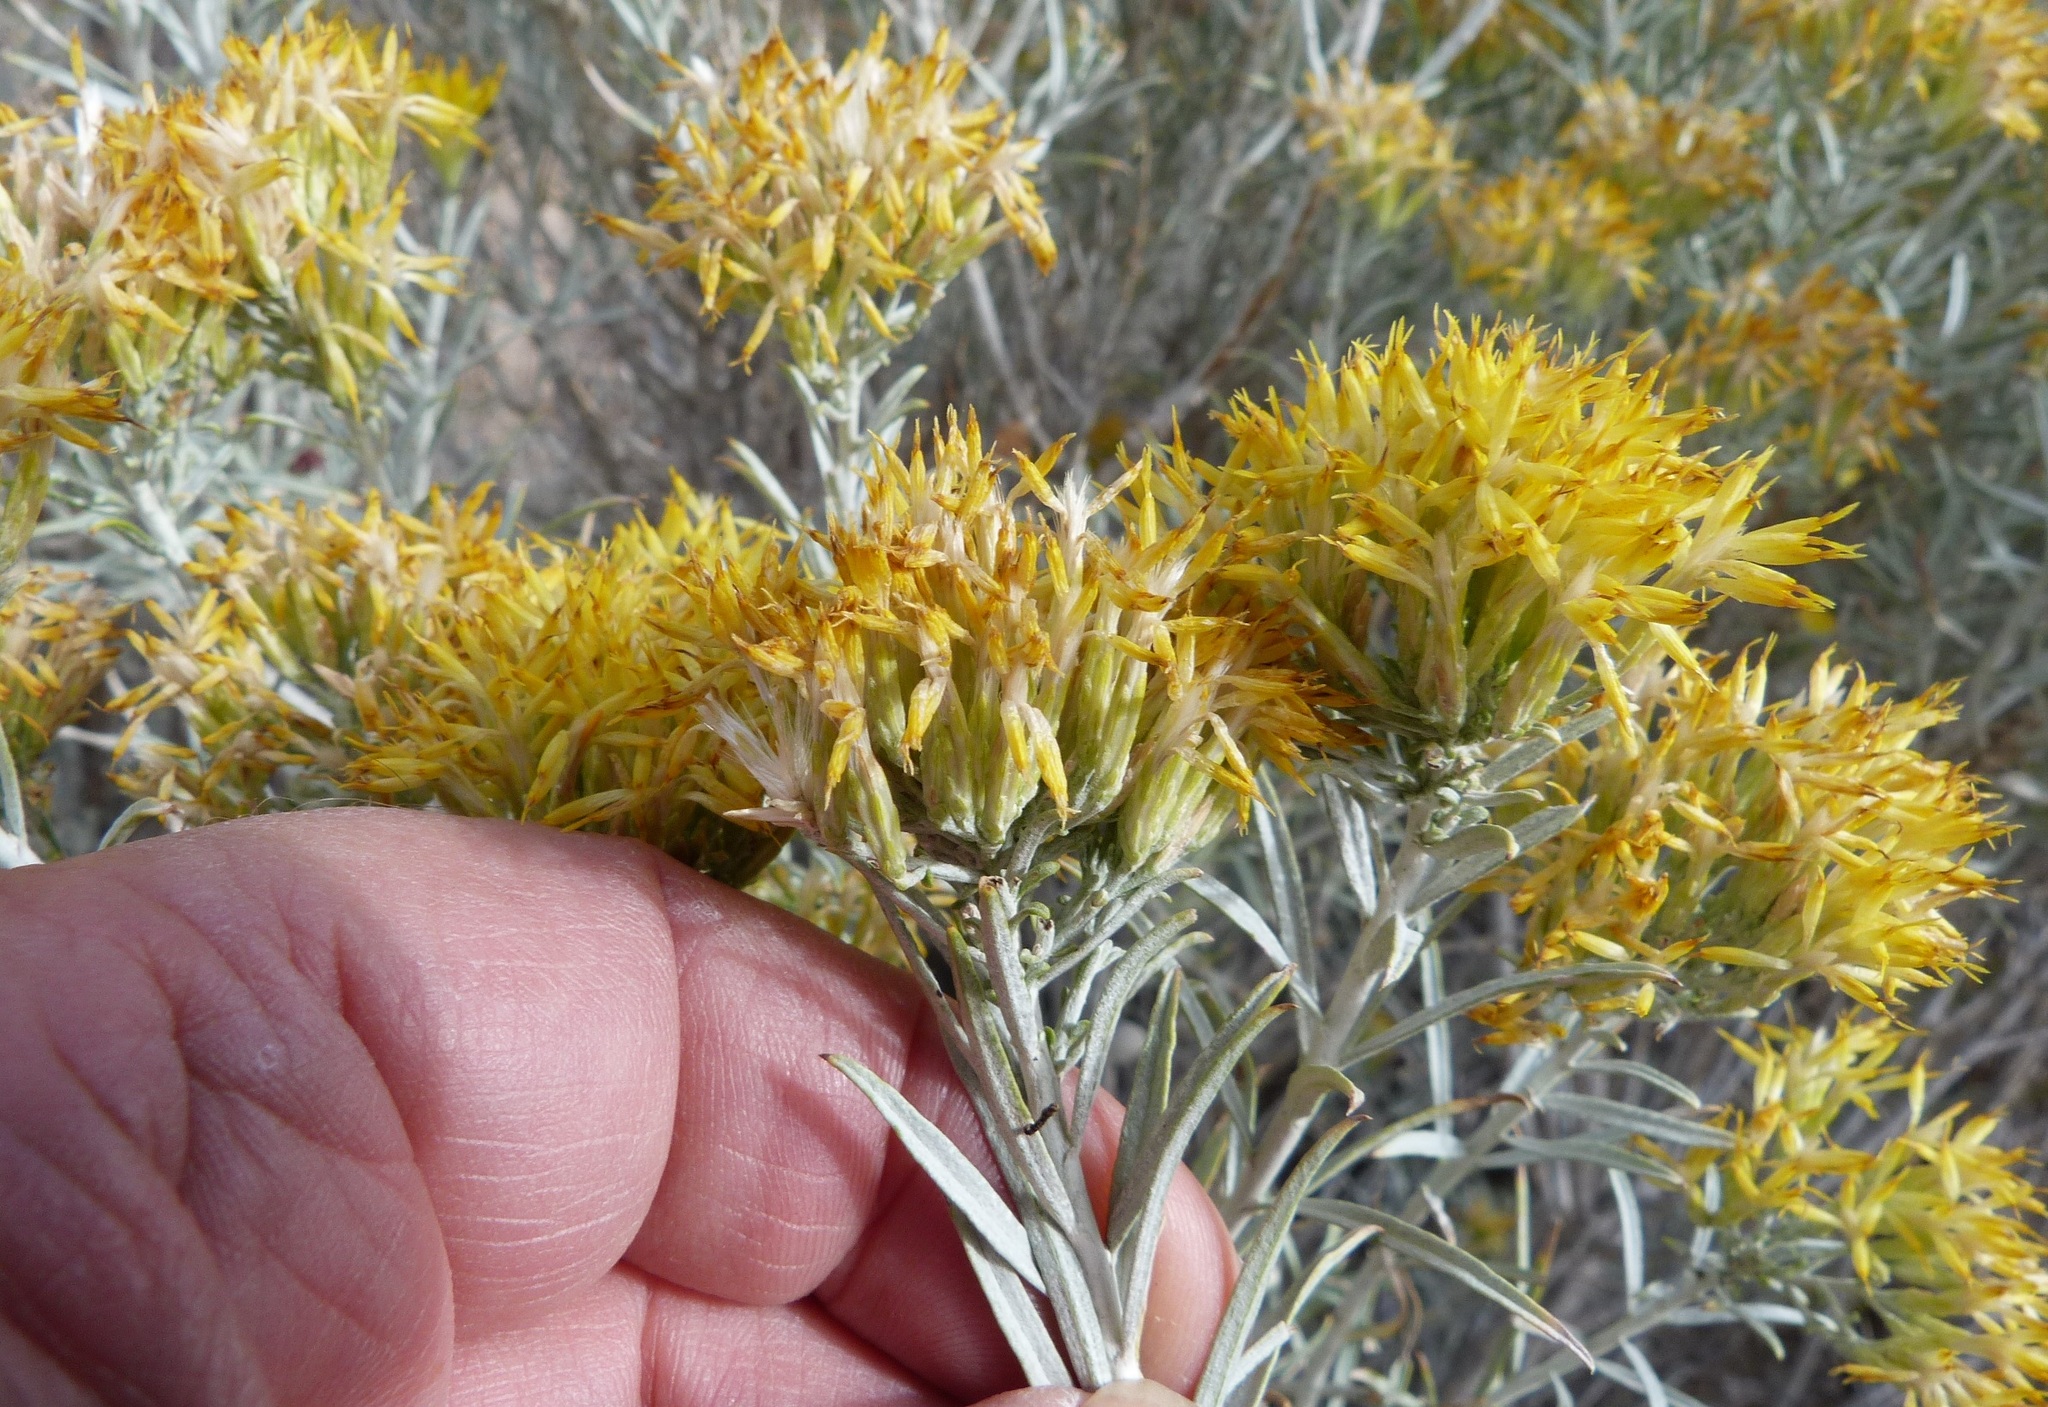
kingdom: Plantae
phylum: Tracheophyta
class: Magnoliopsida
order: Asterales
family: Asteraceae
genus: Ericameria
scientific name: Ericameria nauseosa
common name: Rubber rabbitbrush
